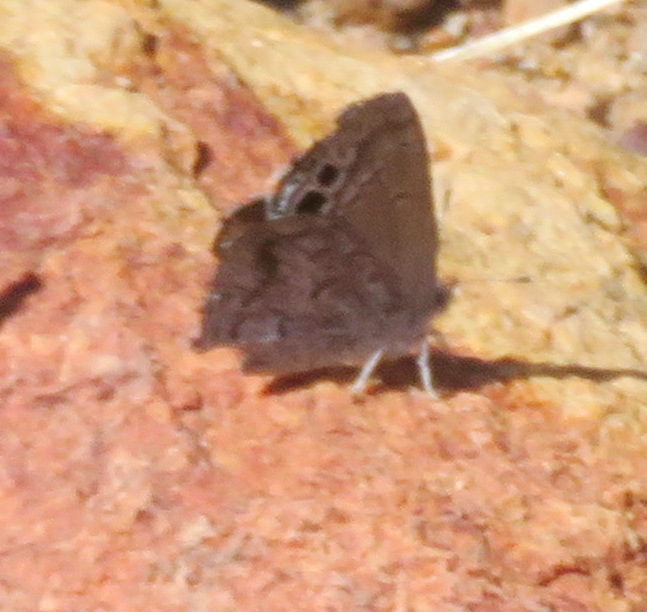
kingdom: Animalia
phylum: Arthropoda
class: Insecta
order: Lepidoptera
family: Lycaenidae
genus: Leptomyrina
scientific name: Leptomyrina lara
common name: Cape black-eye
